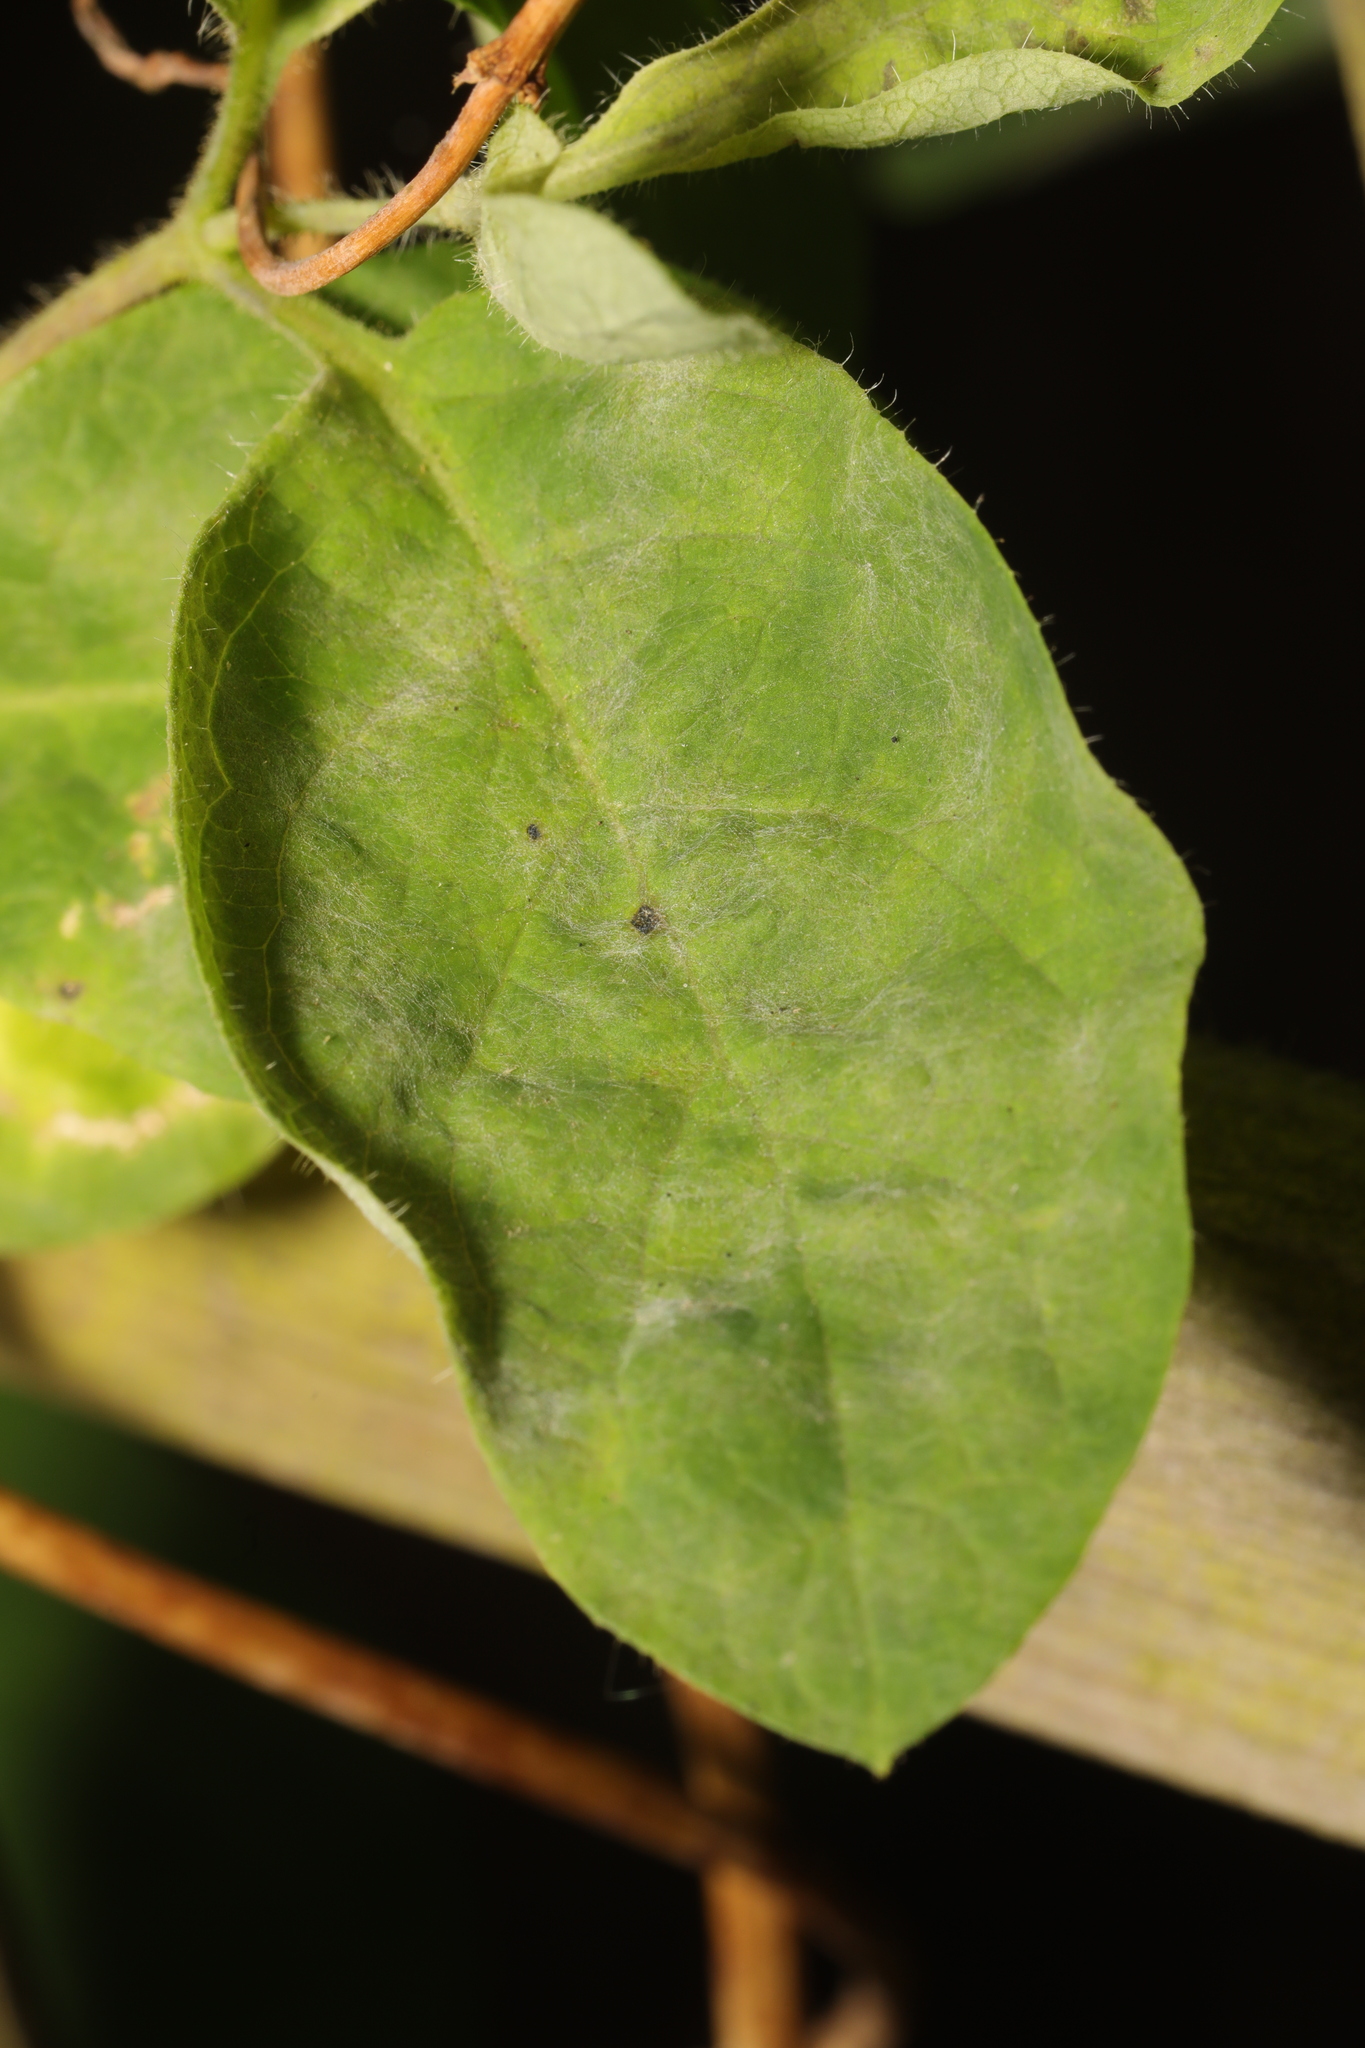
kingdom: Fungi
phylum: Ascomycota
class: Leotiomycetes
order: Helotiales
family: Erysiphaceae
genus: Erysiphe
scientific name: Erysiphe lonicerae
